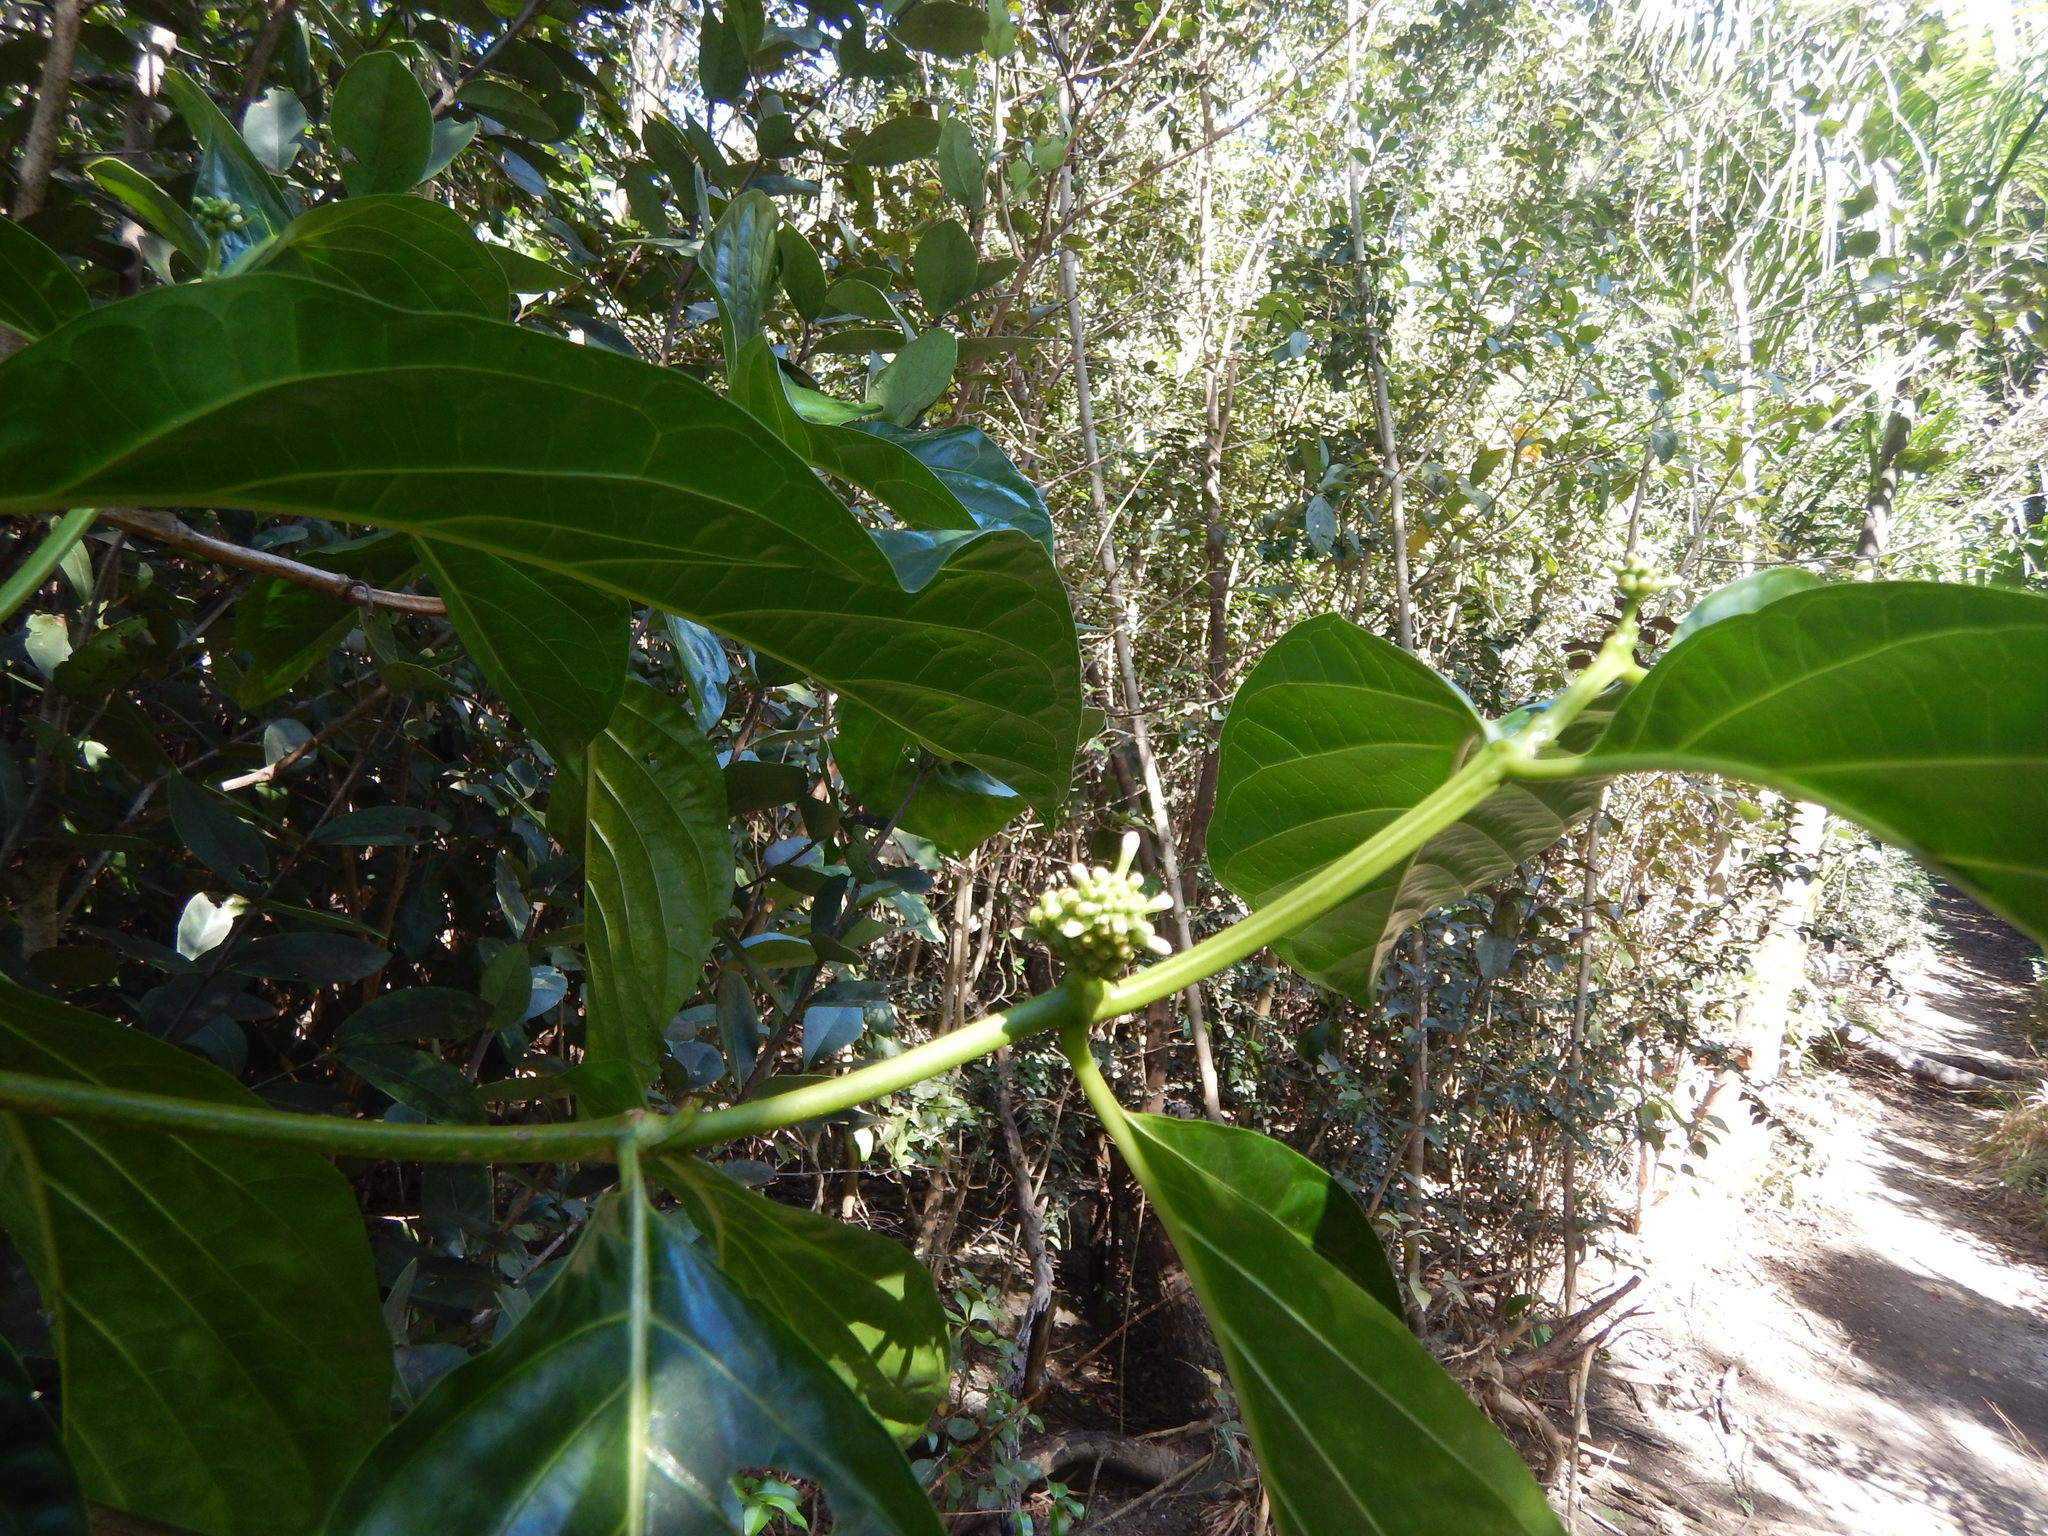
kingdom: Plantae
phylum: Tracheophyta
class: Magnoliopsida
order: Gentianales
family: Rubiaceae
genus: Morinda
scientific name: Morinda citrifolia
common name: Indian-mulberry
